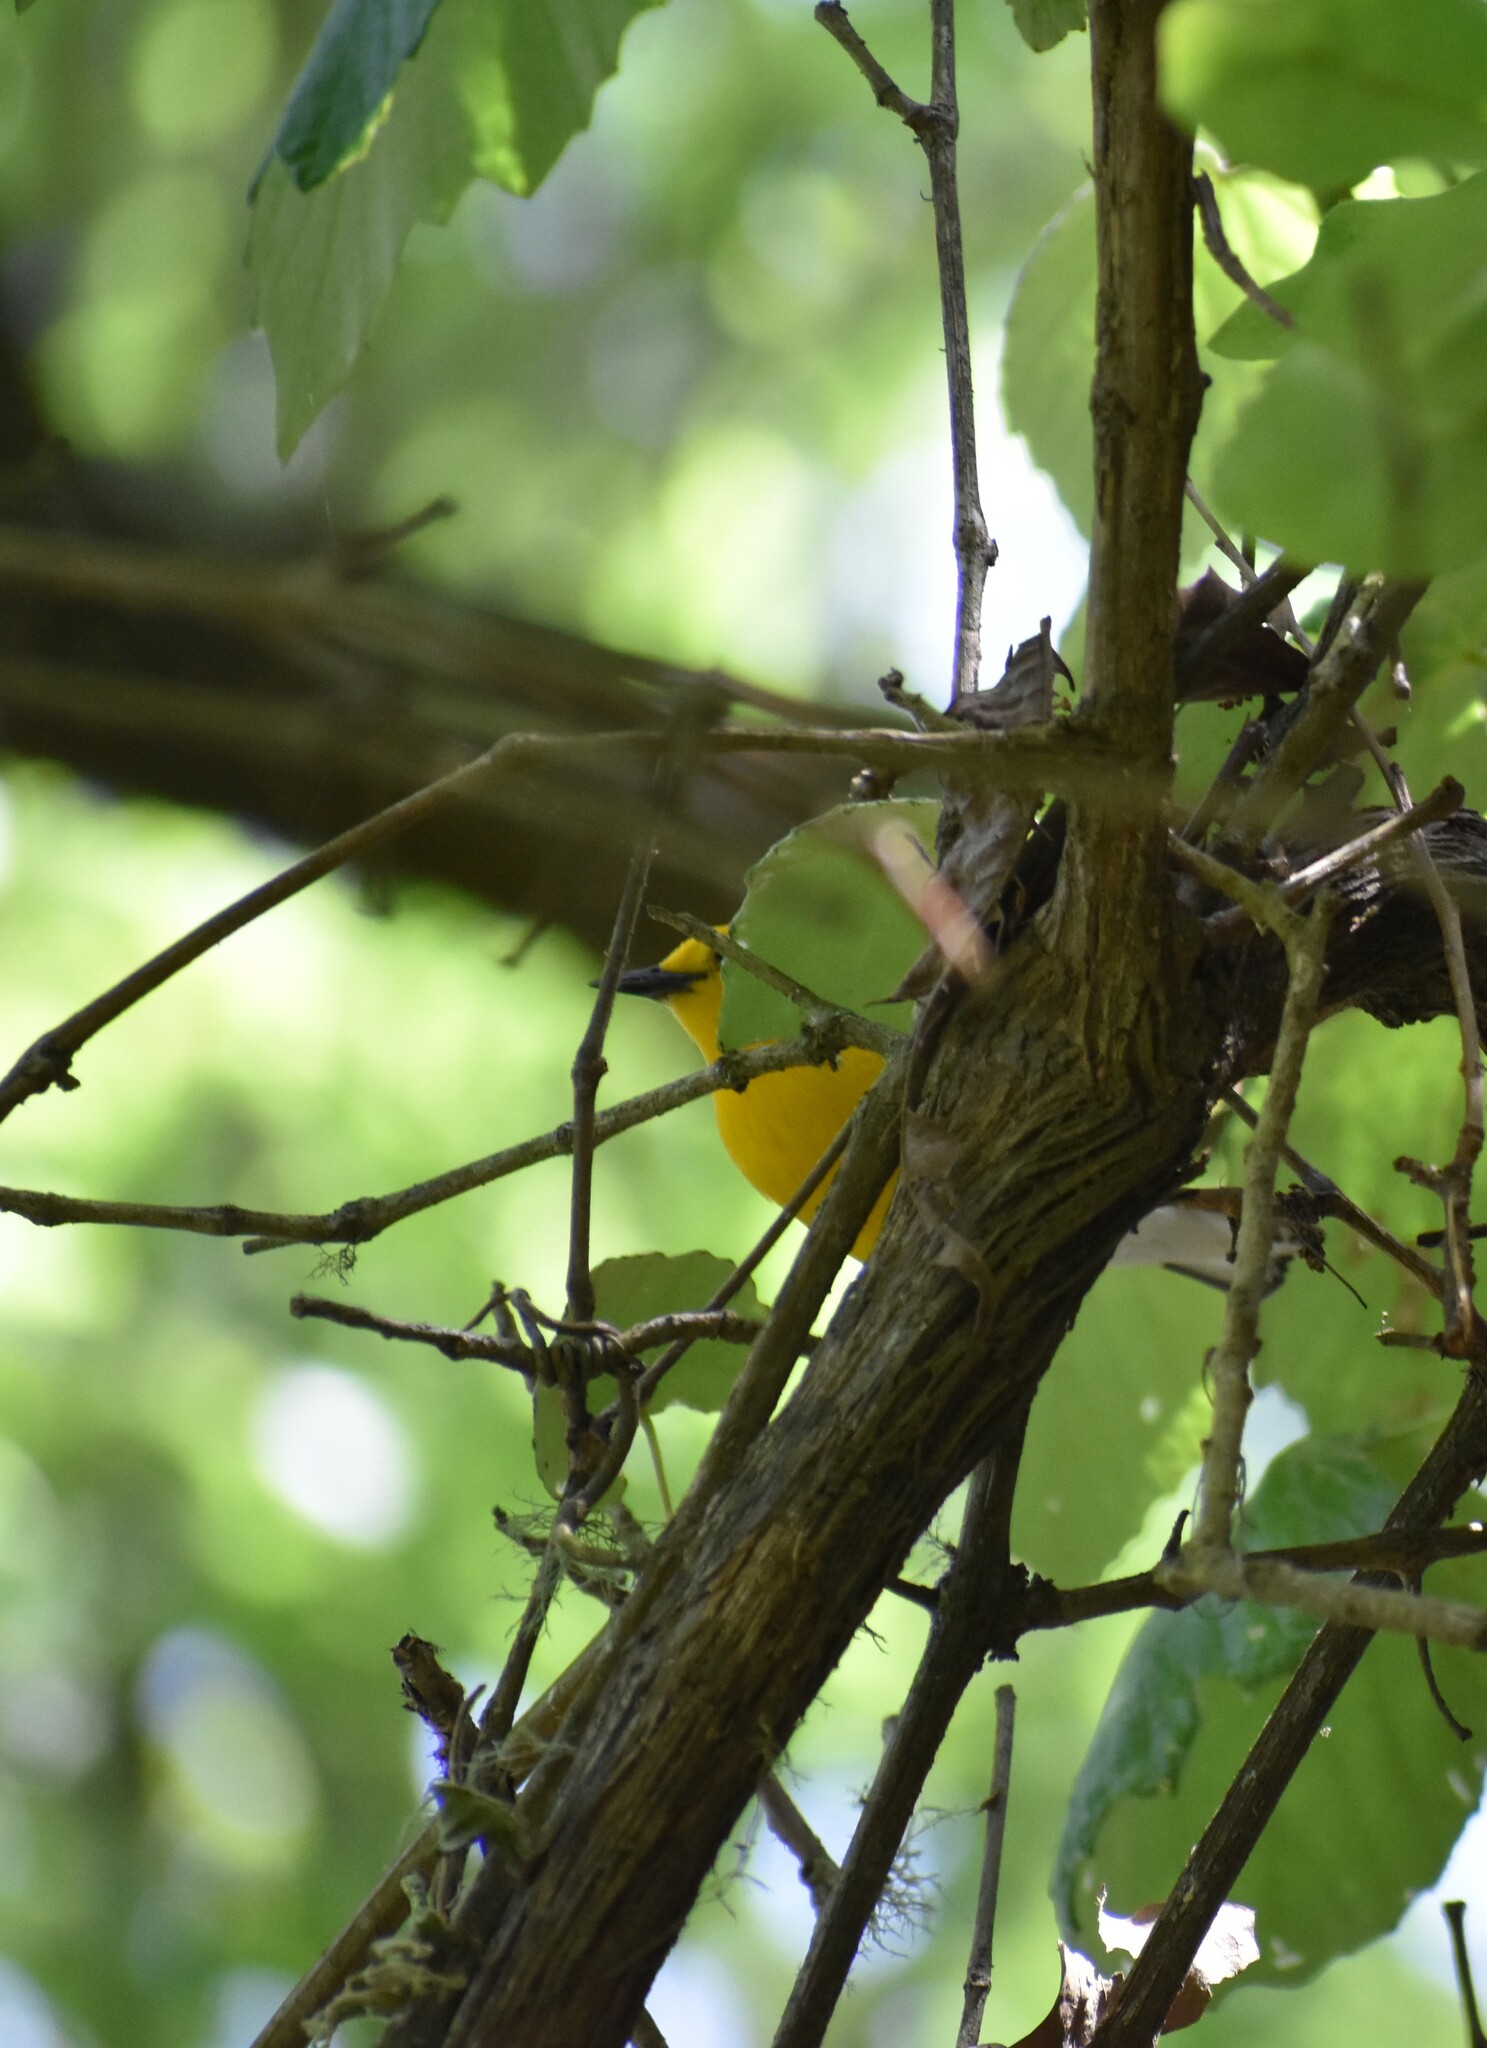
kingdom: Animalia
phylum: Chordata
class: Aves
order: Passeriformes
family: Parulidae
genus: Protonotaria
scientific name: Protonotaria citrea
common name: Prothonotary warbler
